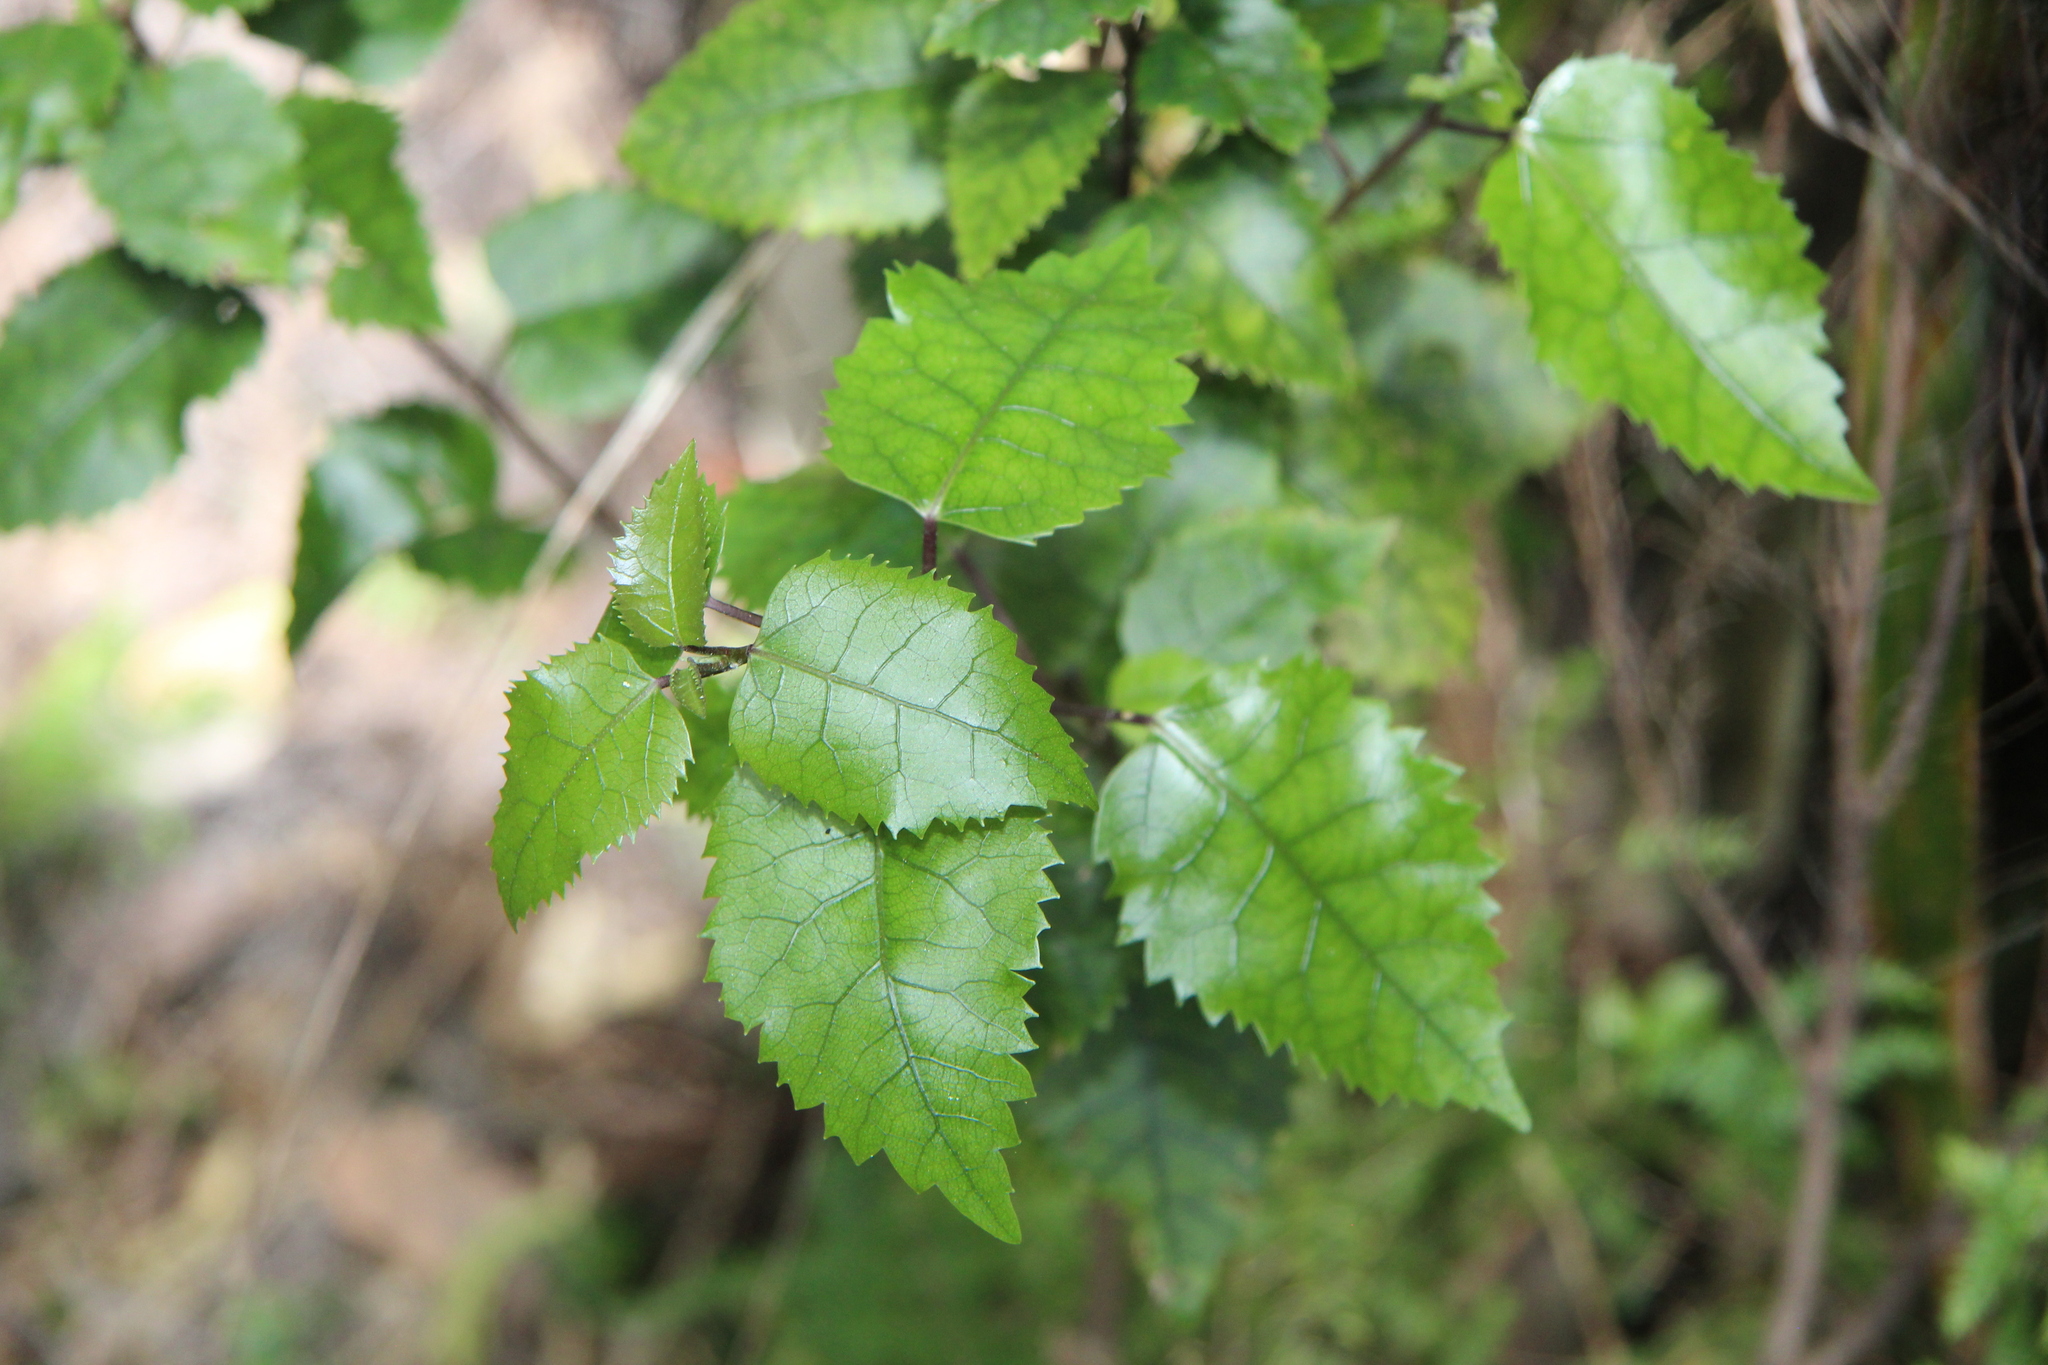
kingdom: Plantae
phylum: Tracheophyta
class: Magnoliopsida
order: Malvales
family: Malvaceae
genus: Hoheria
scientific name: Hoheria populnea
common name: Lacebark
